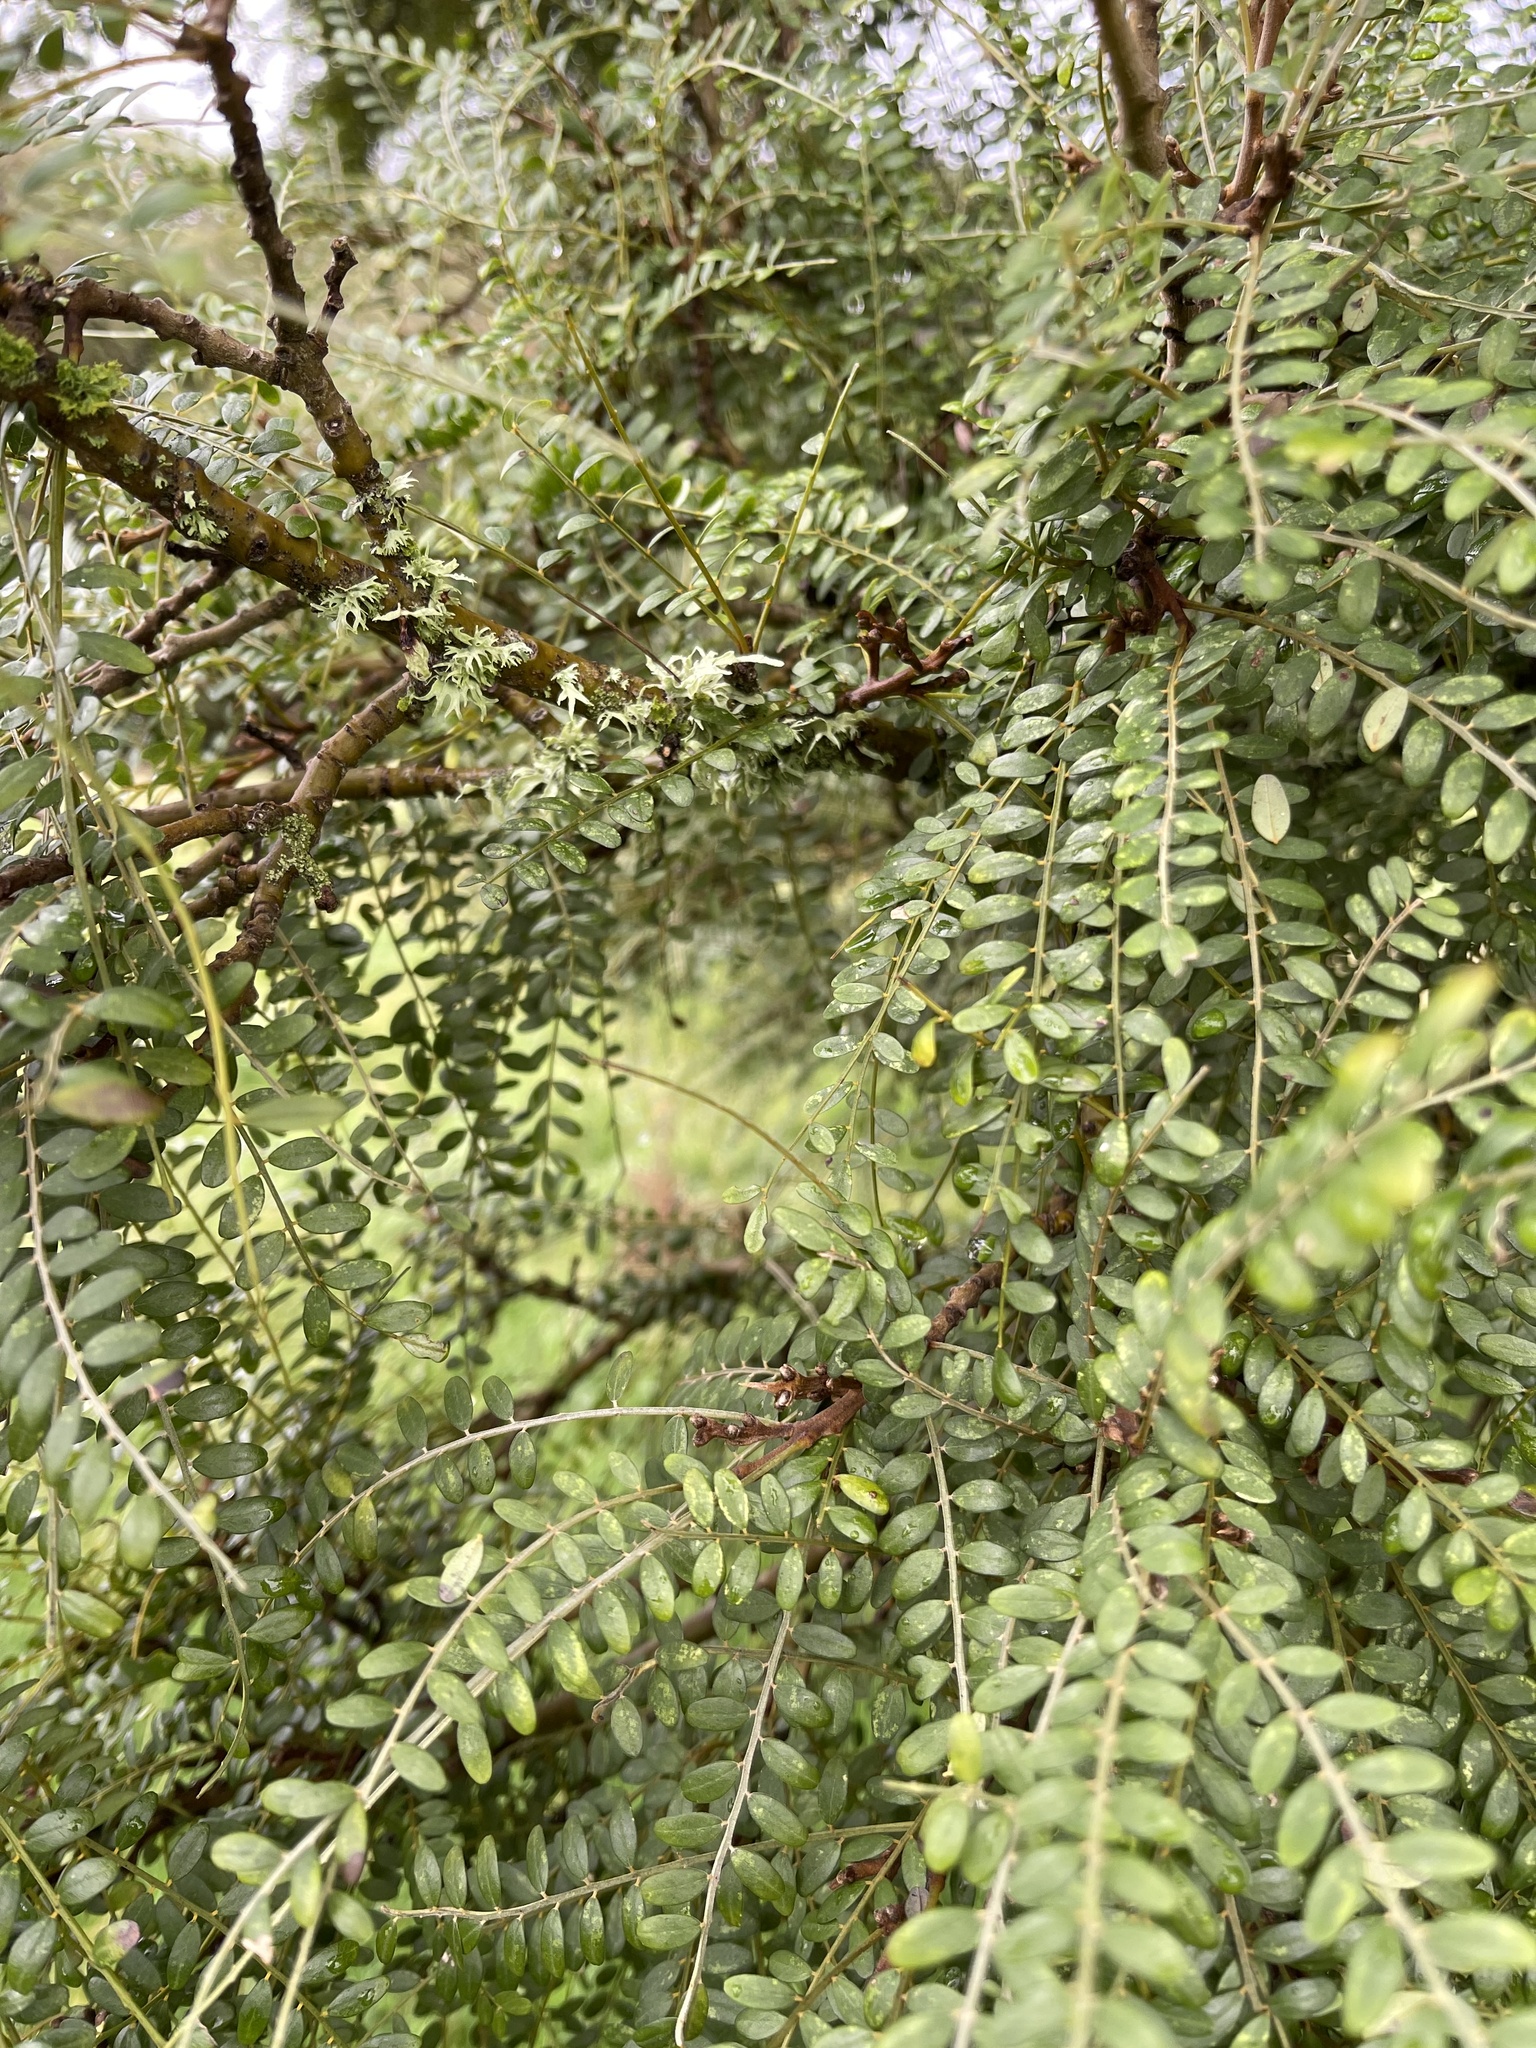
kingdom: Plantae
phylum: Tracheophyta
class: Magnoliopsida
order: Fabales
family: Fabaceae
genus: Sophora
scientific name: Sophora microphylla
